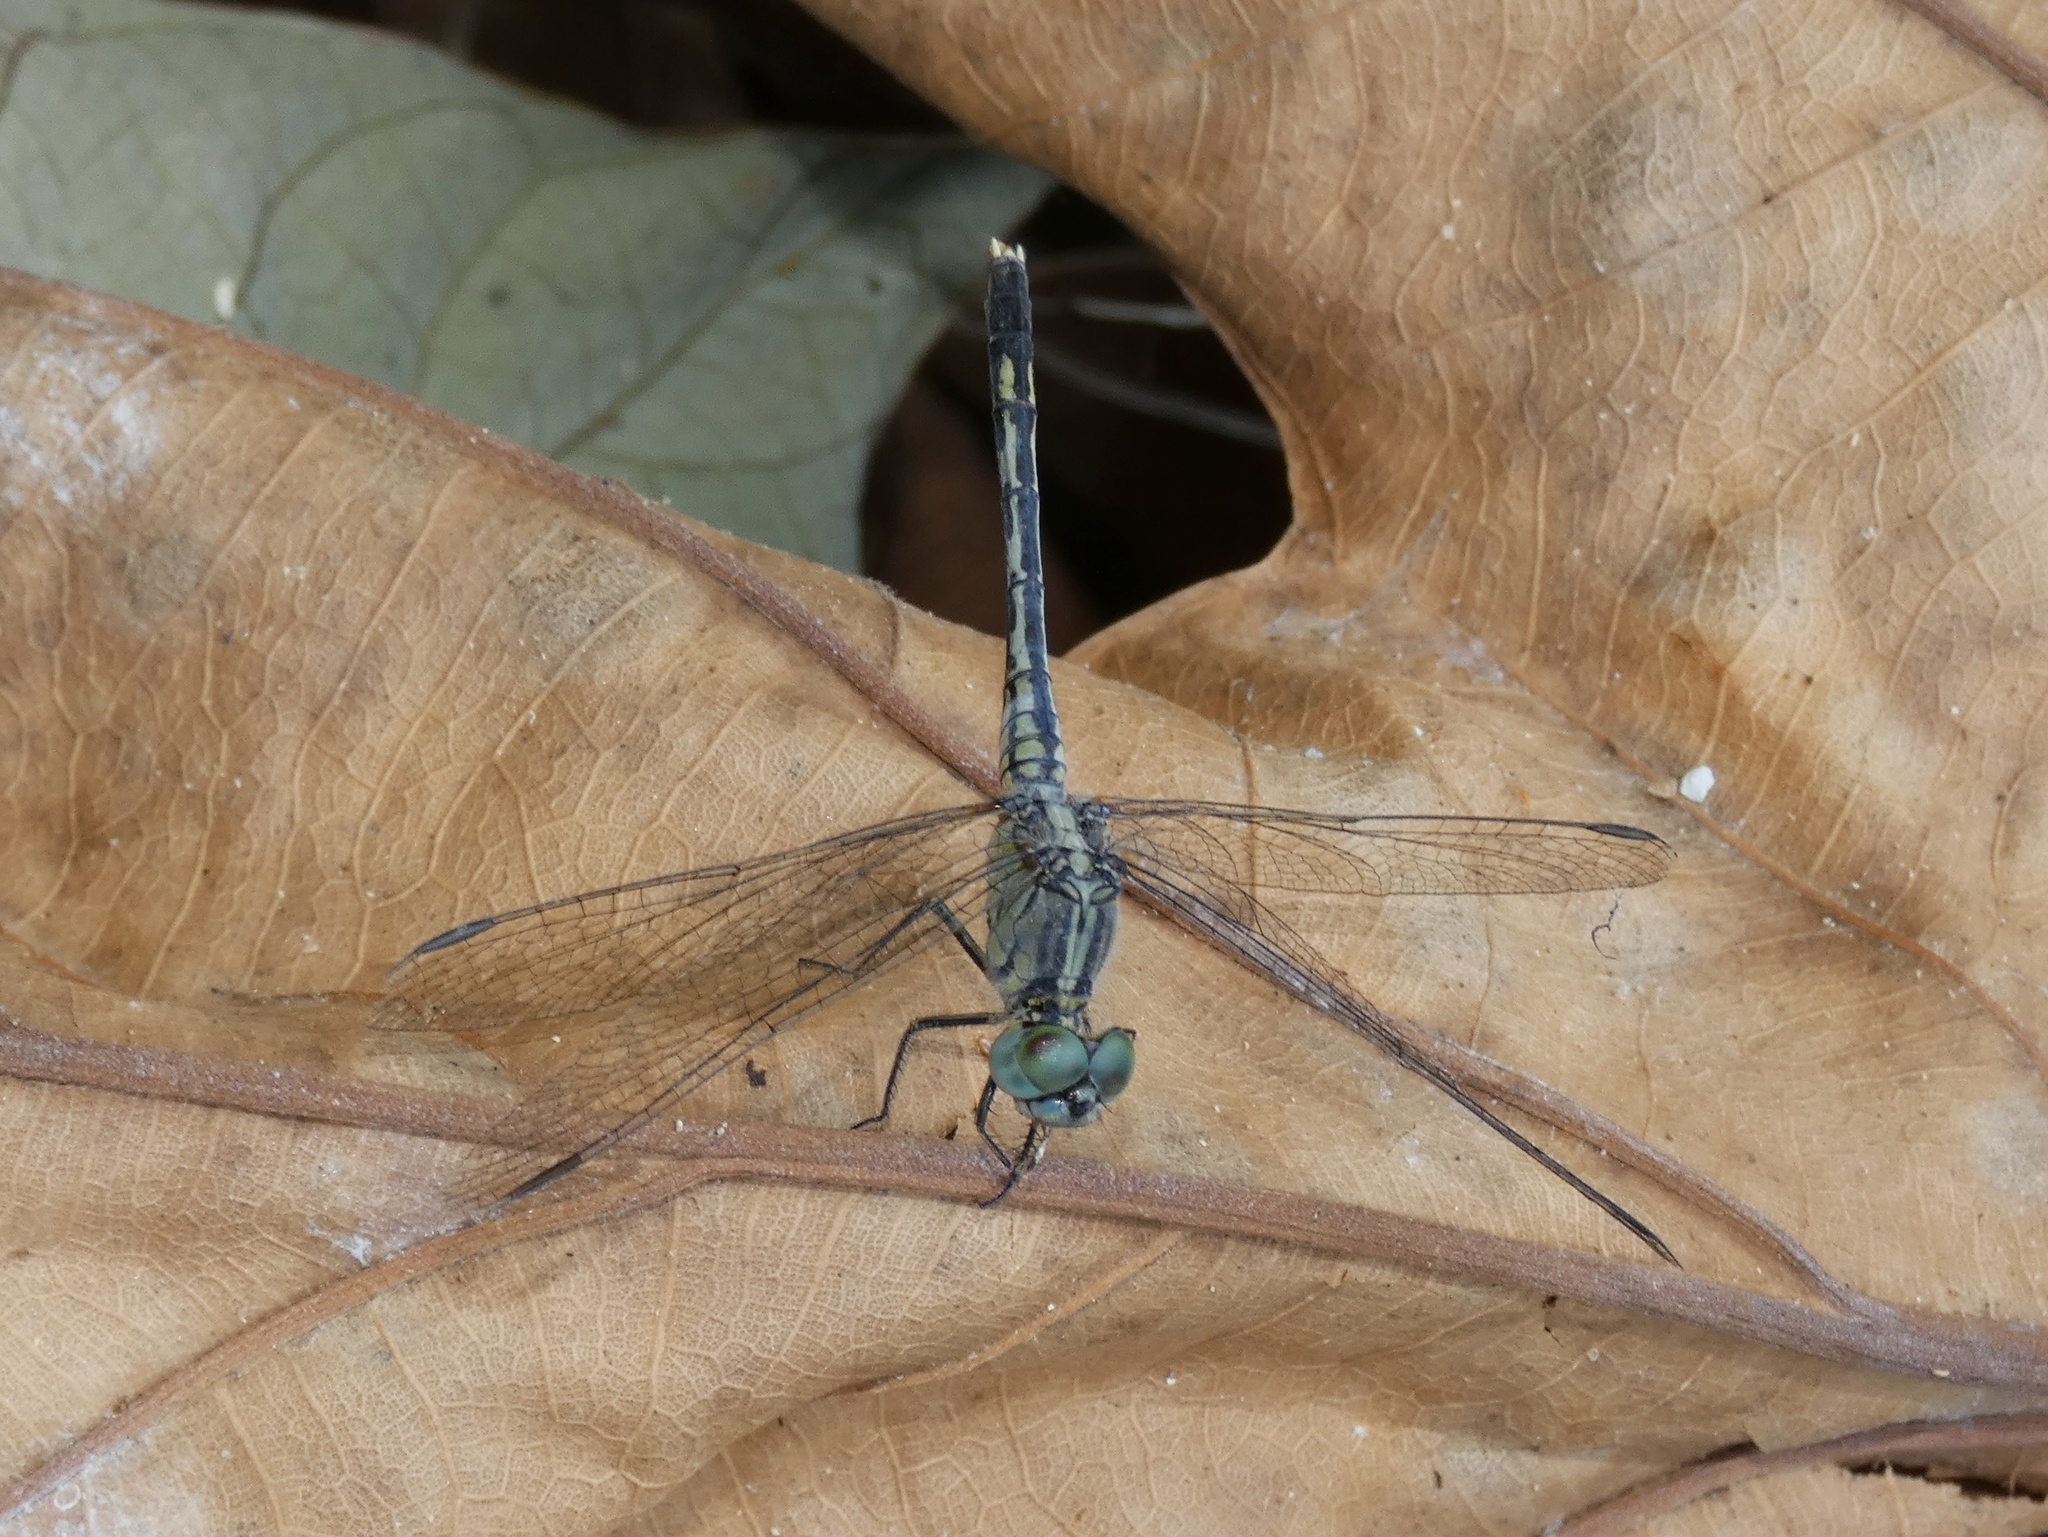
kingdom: Animalia
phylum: Arthropoda
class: Insecta
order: Odonata
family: Libellulidae
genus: Diplacodes
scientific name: Diplacodes trivialis
